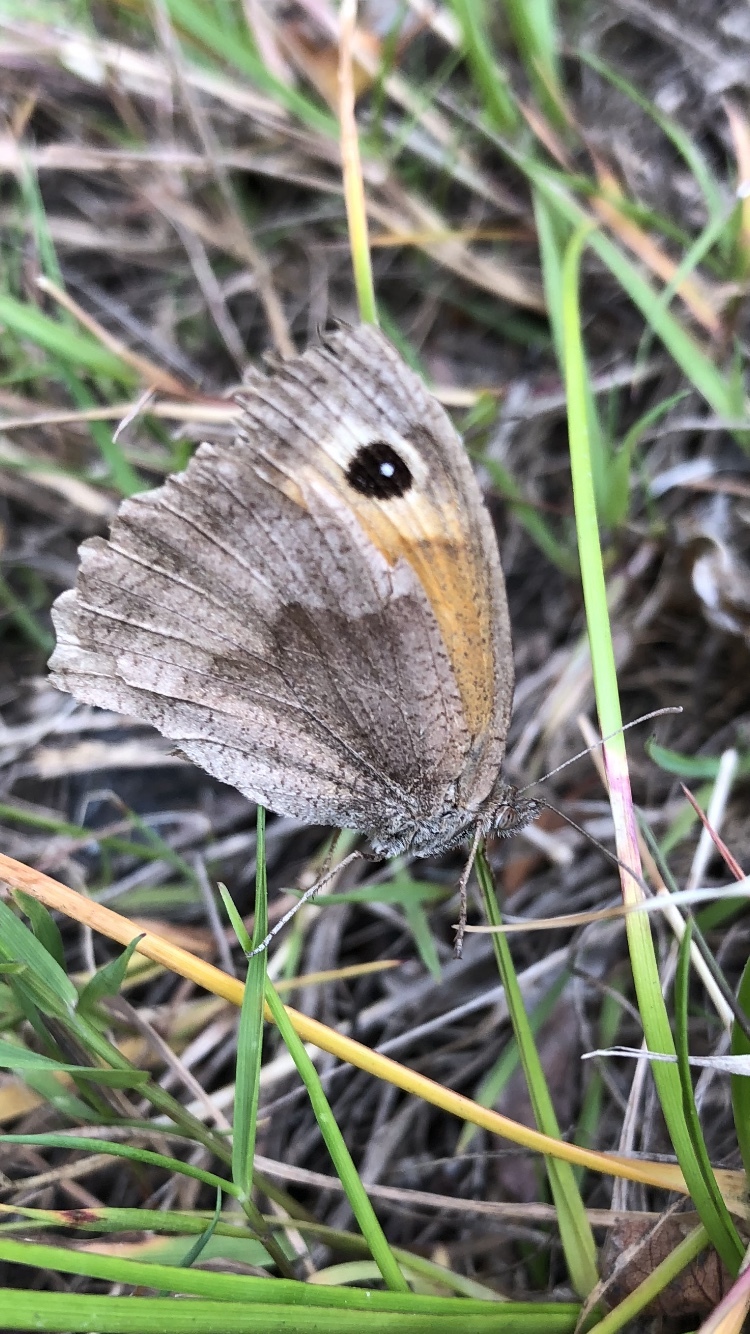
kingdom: Animalia
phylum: Arthropoda
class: Insecta
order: Lepidoptera
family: Nymphalidae
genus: Maniola
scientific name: Maniola jurtina
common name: Meadow brown
